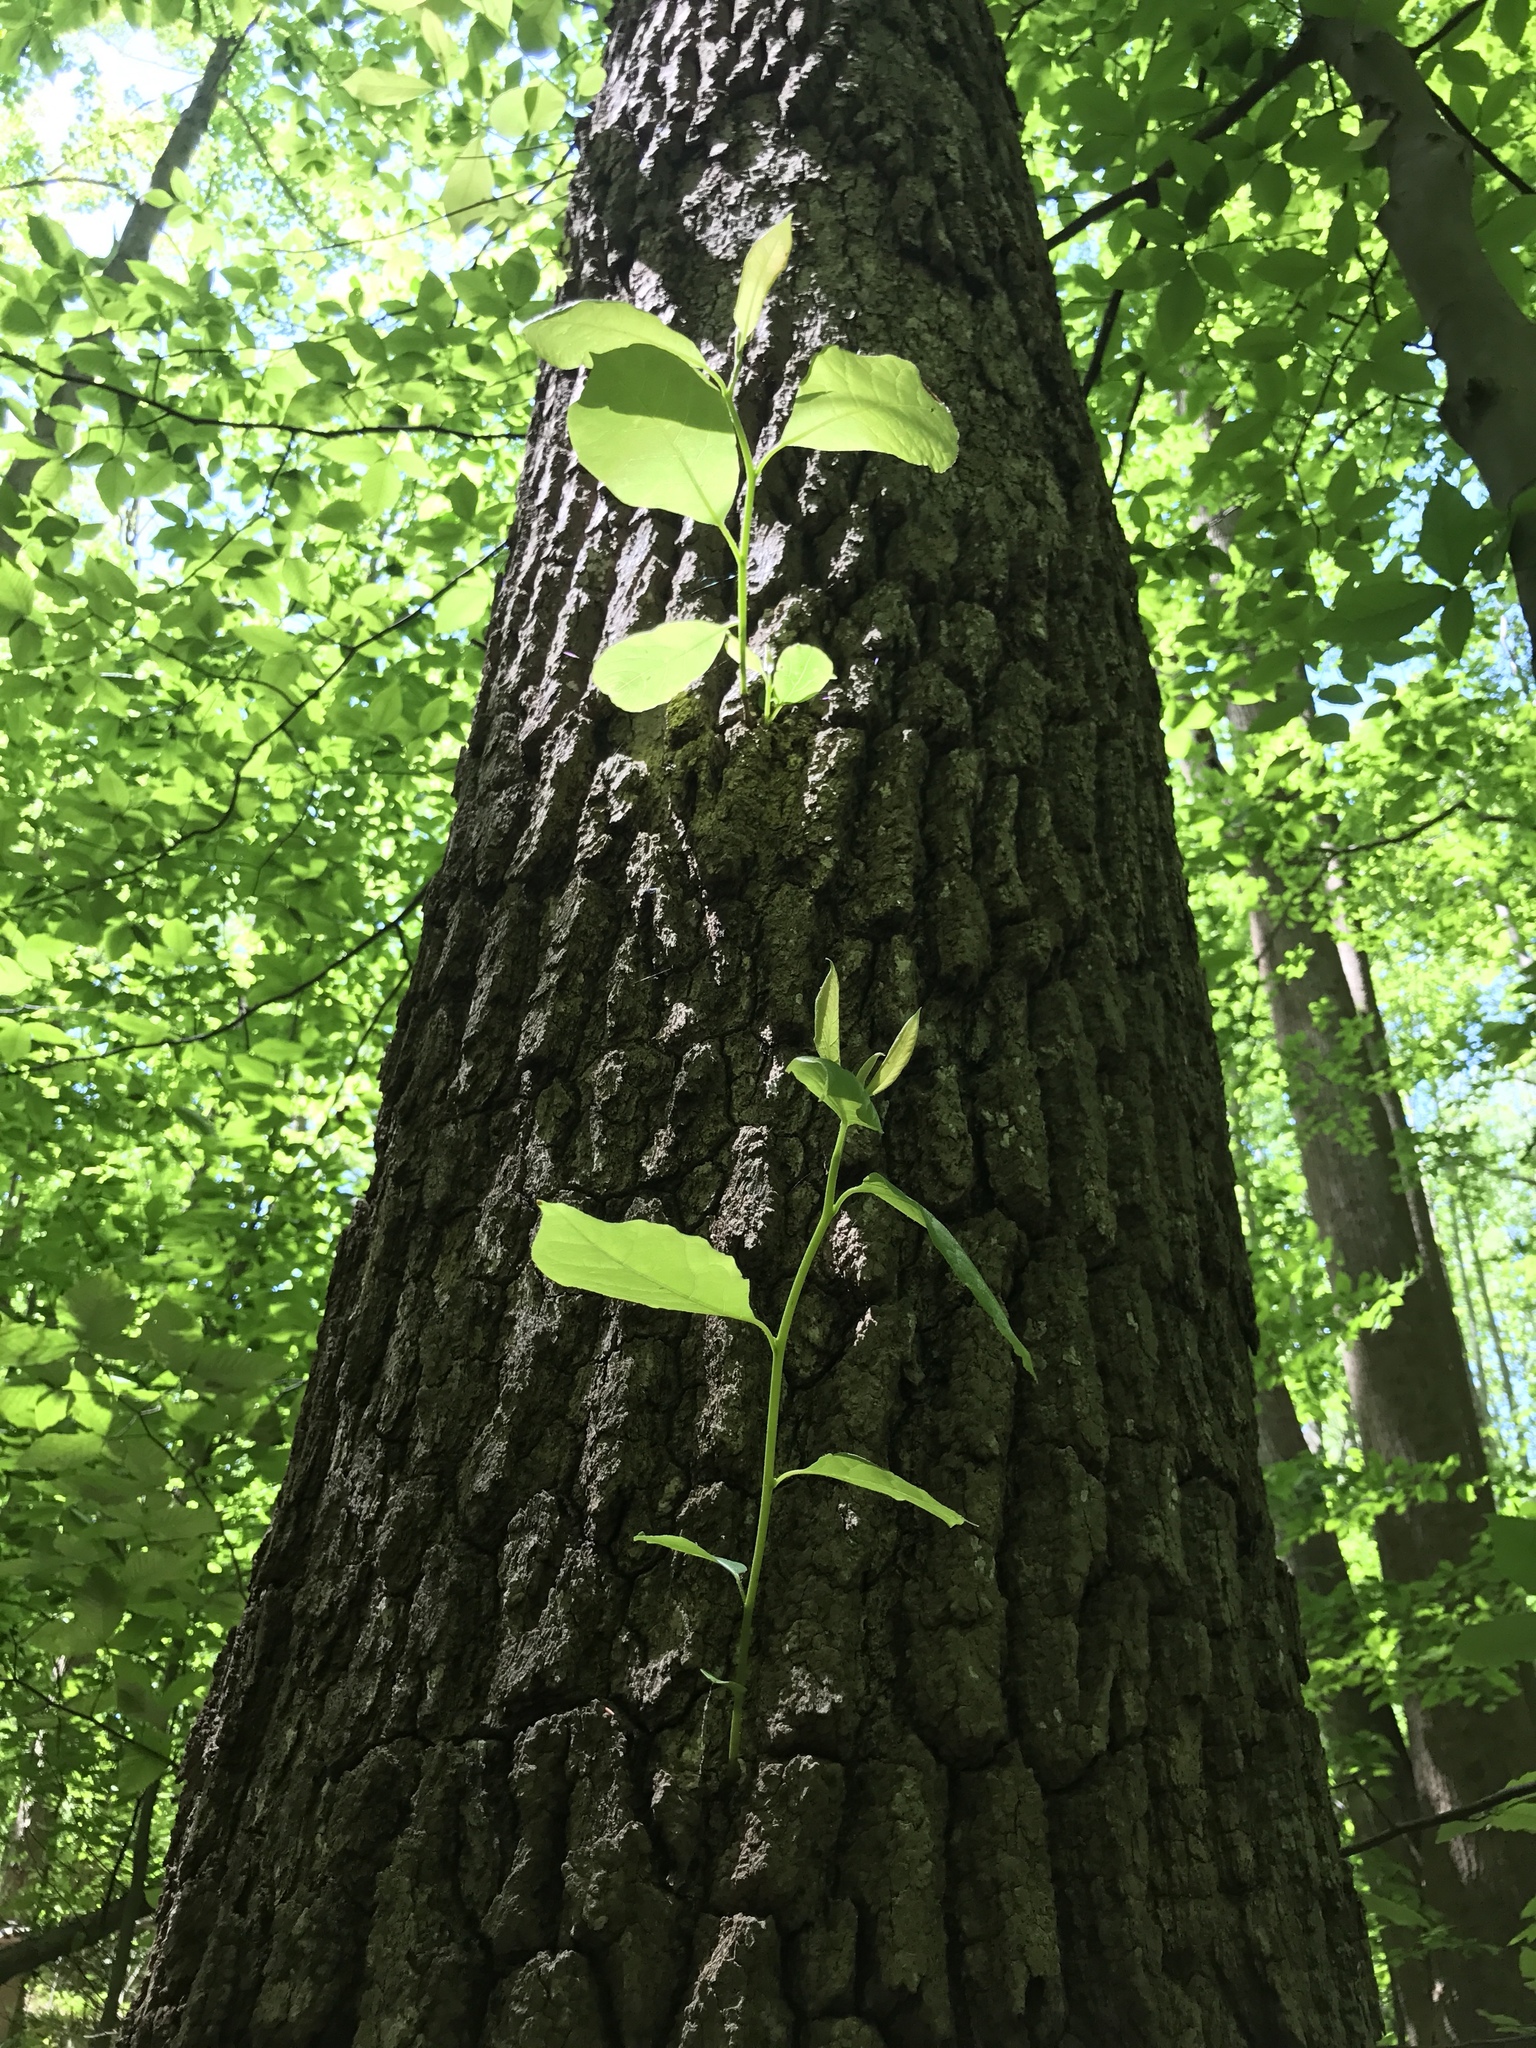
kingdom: Plantae
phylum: Tracheophyta
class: Magnoliopsida
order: Cornales
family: Nyssaceae
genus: Nyssa
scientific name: Nyssa sylvatica
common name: Black tupelo
